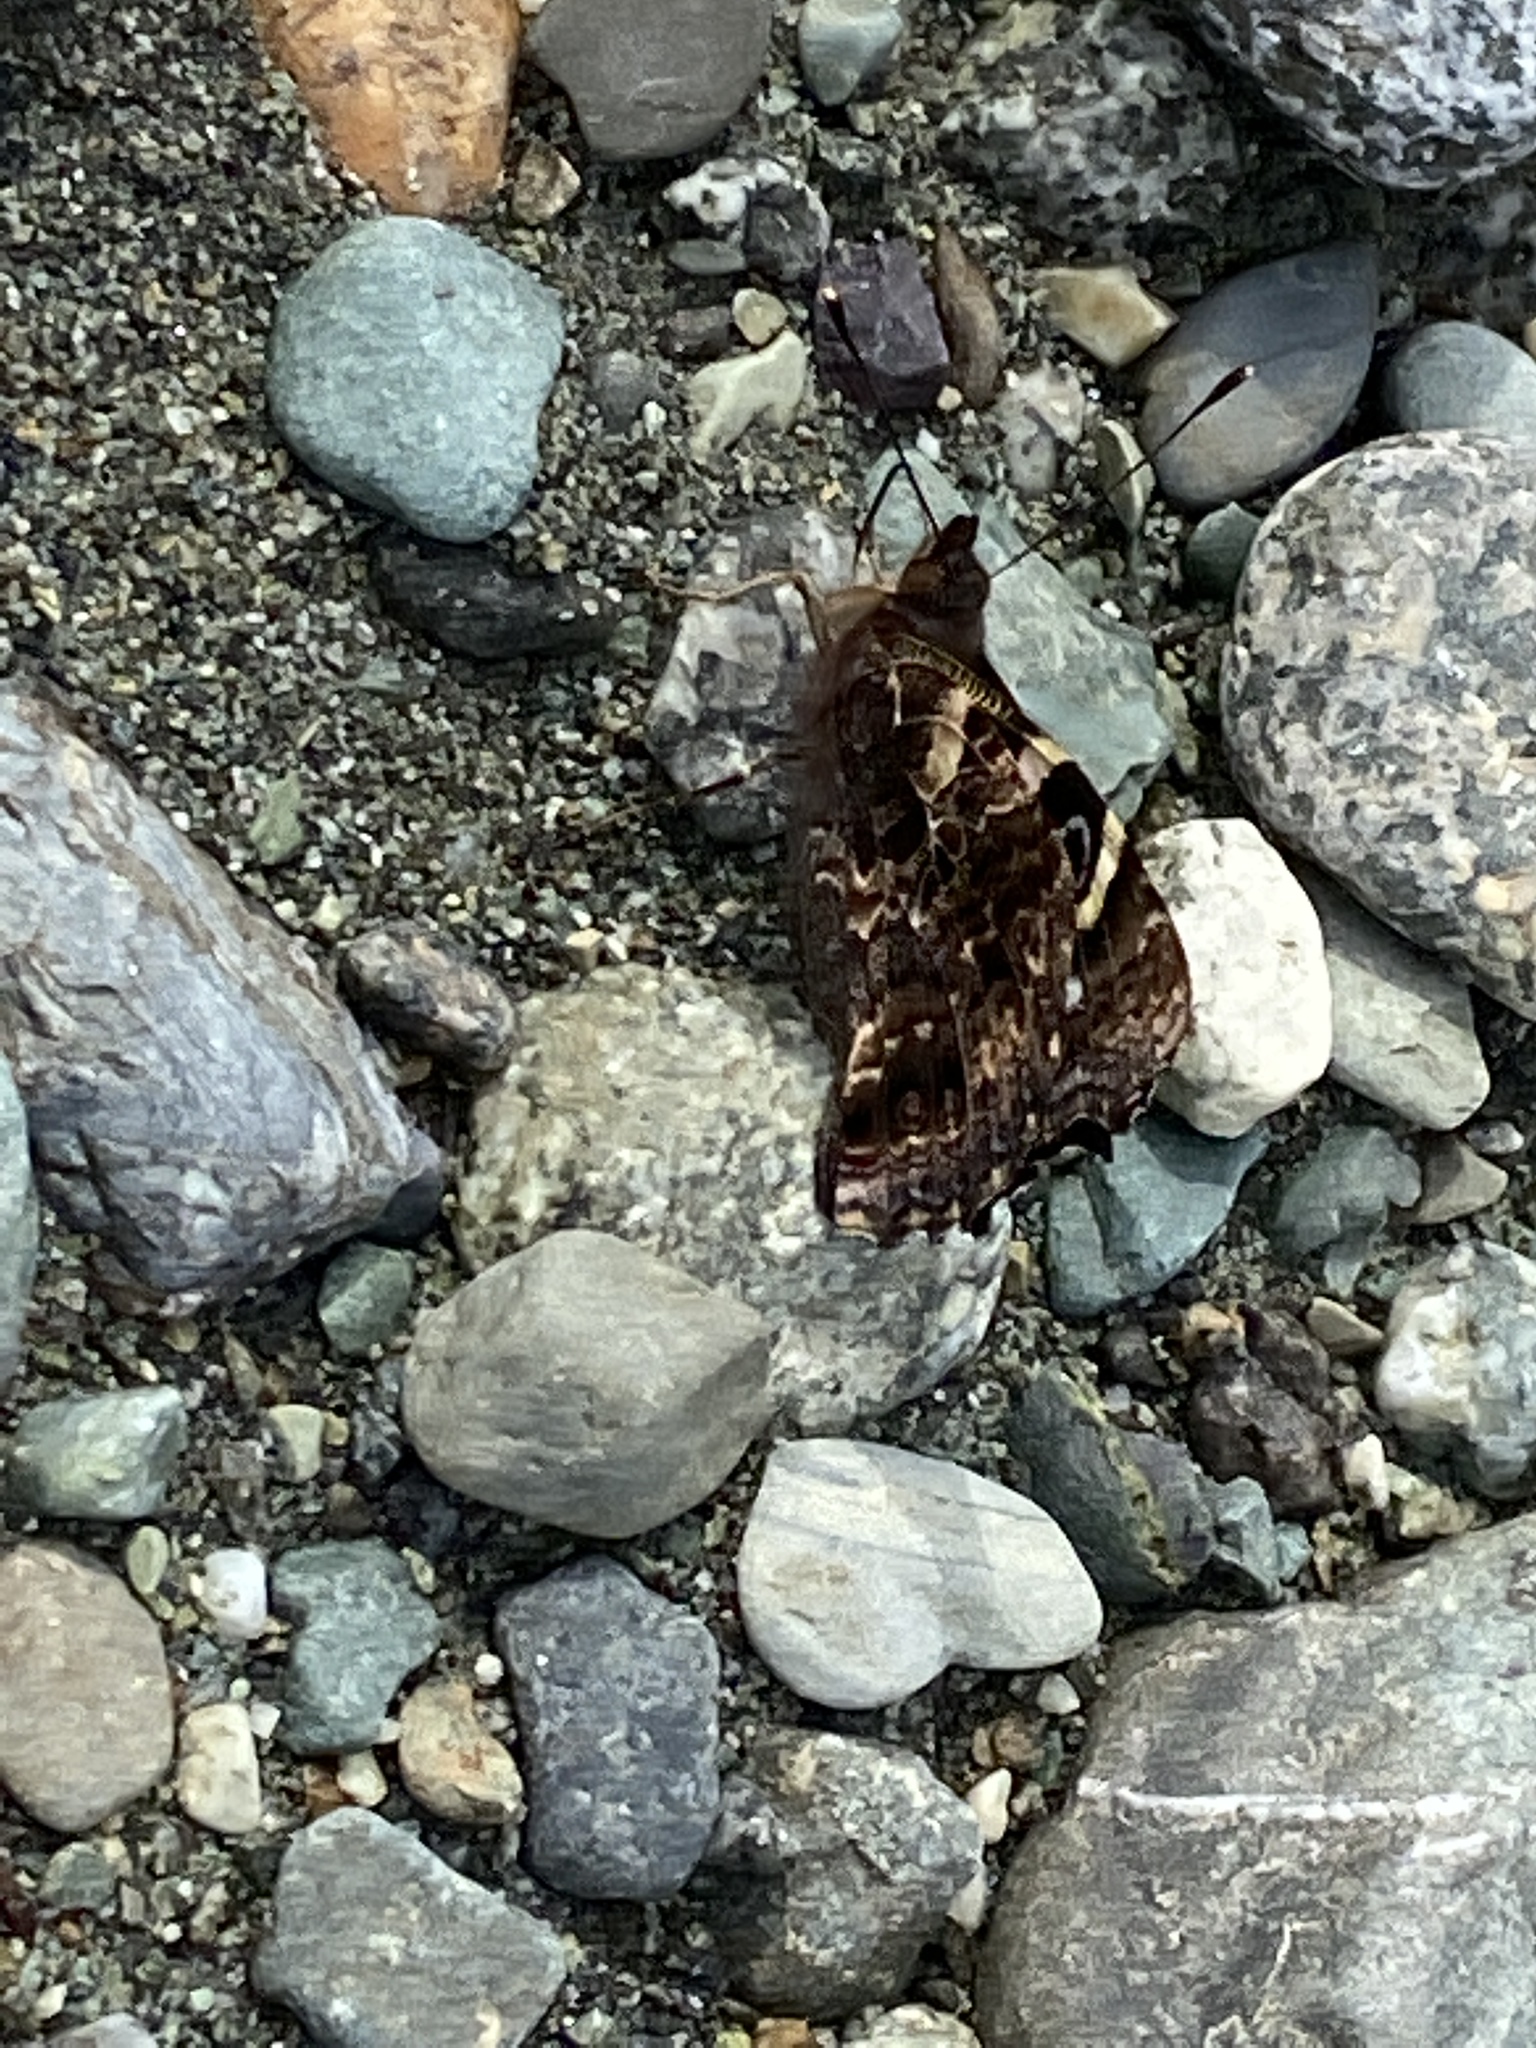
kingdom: Animalia
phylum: Arthropoda
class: Insecta
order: Lepidoptera
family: Nymphalidae
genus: Vanessa
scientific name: Vanessa gonerilla
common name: New zealand red admiral
